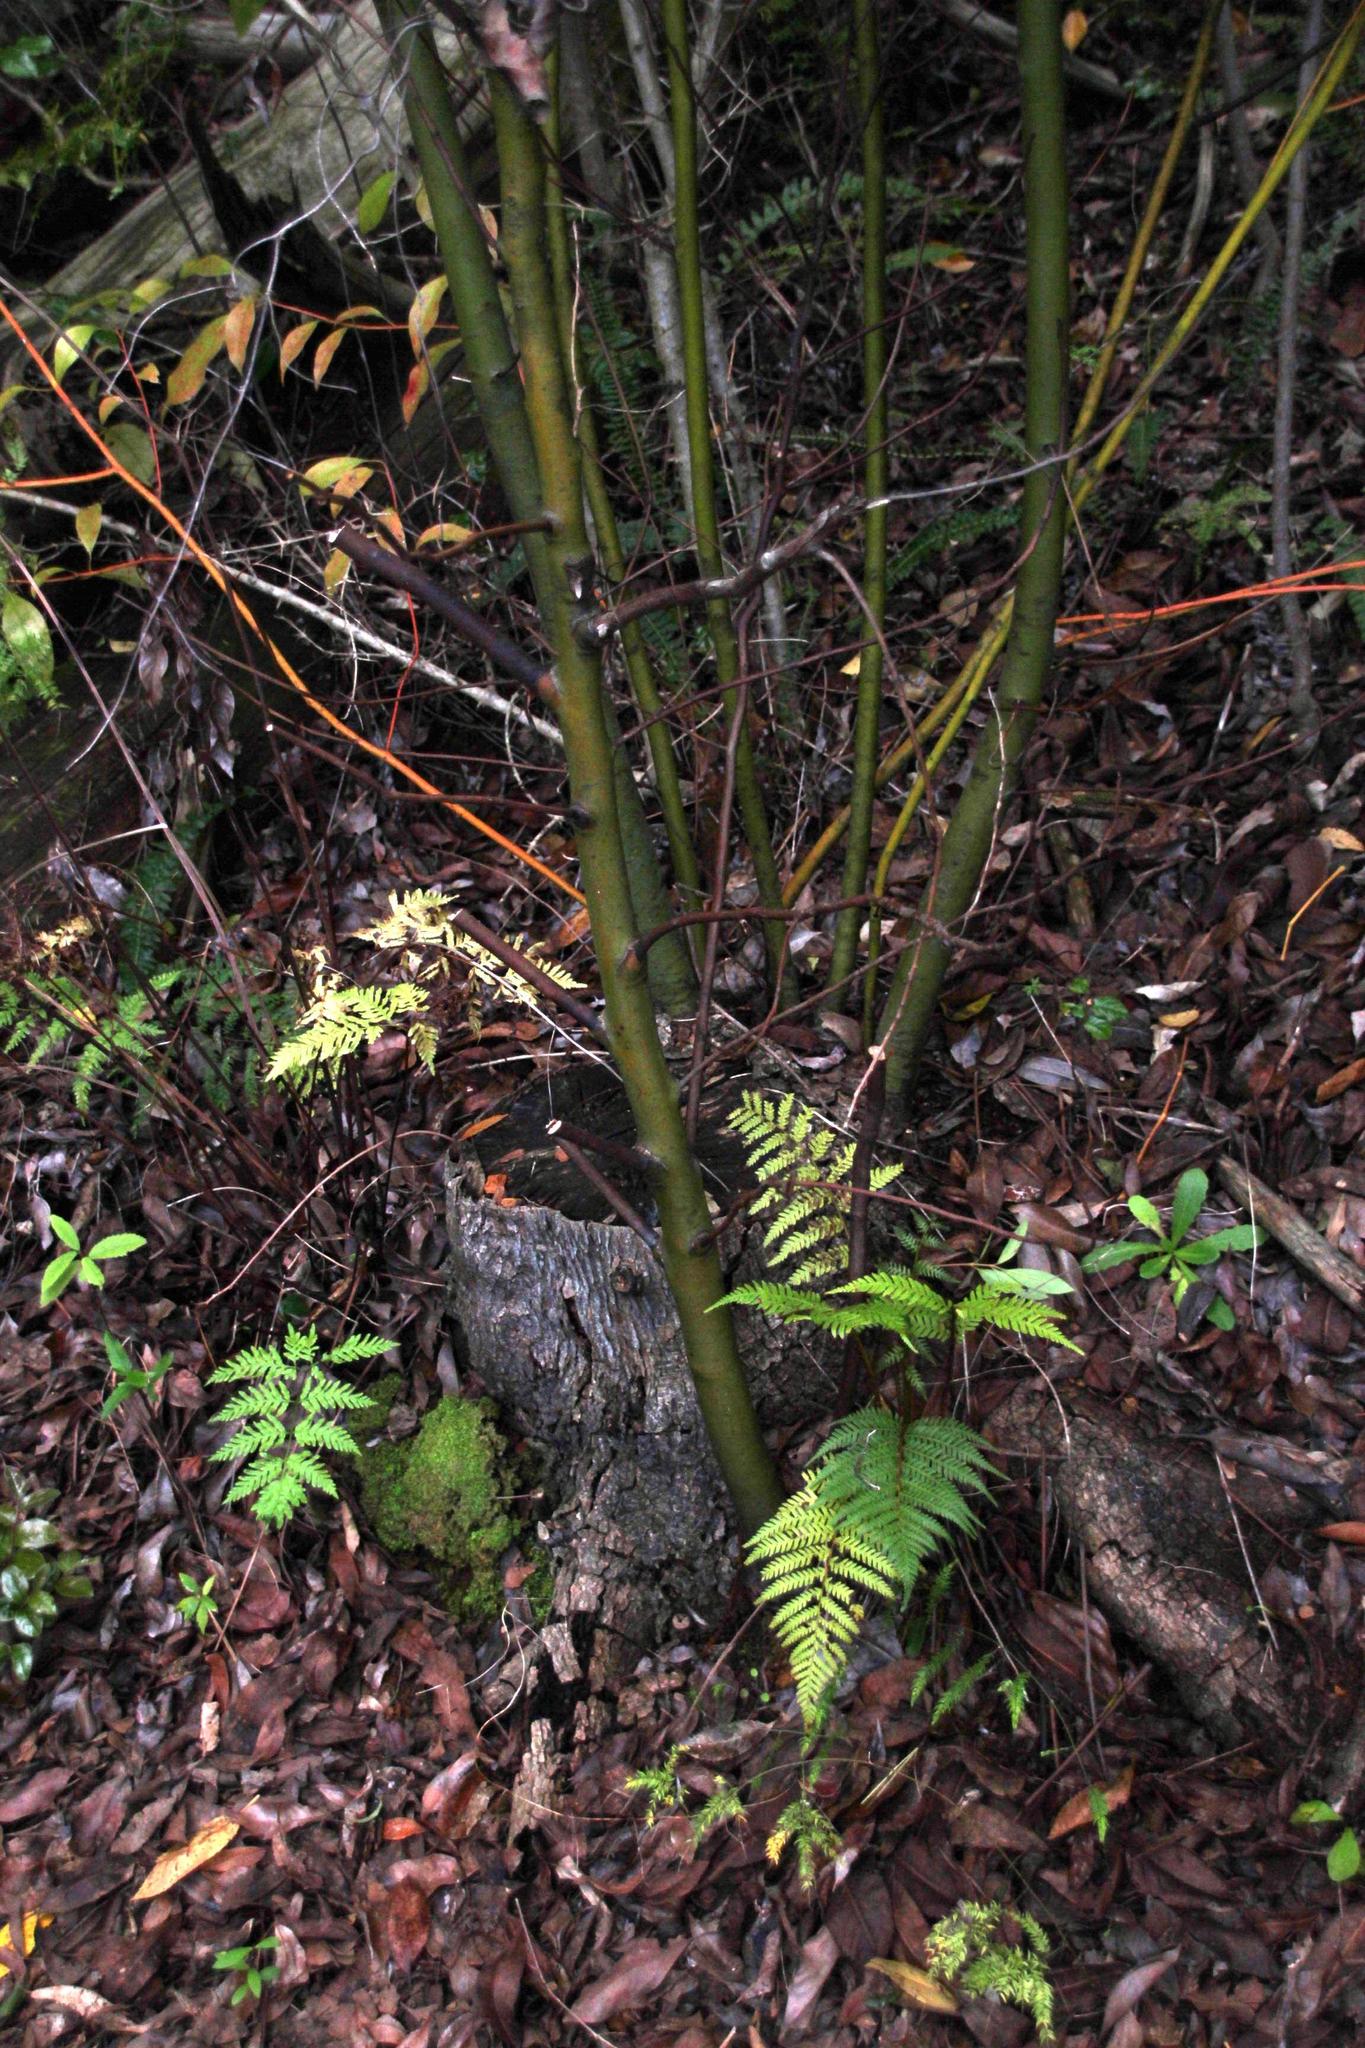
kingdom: Plantae
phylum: Tracheophyta
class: Magnoliopsida
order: Laurales
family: Lauraceae
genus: Cinnamomum
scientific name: Cinnamomum camphora
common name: Camphortree
